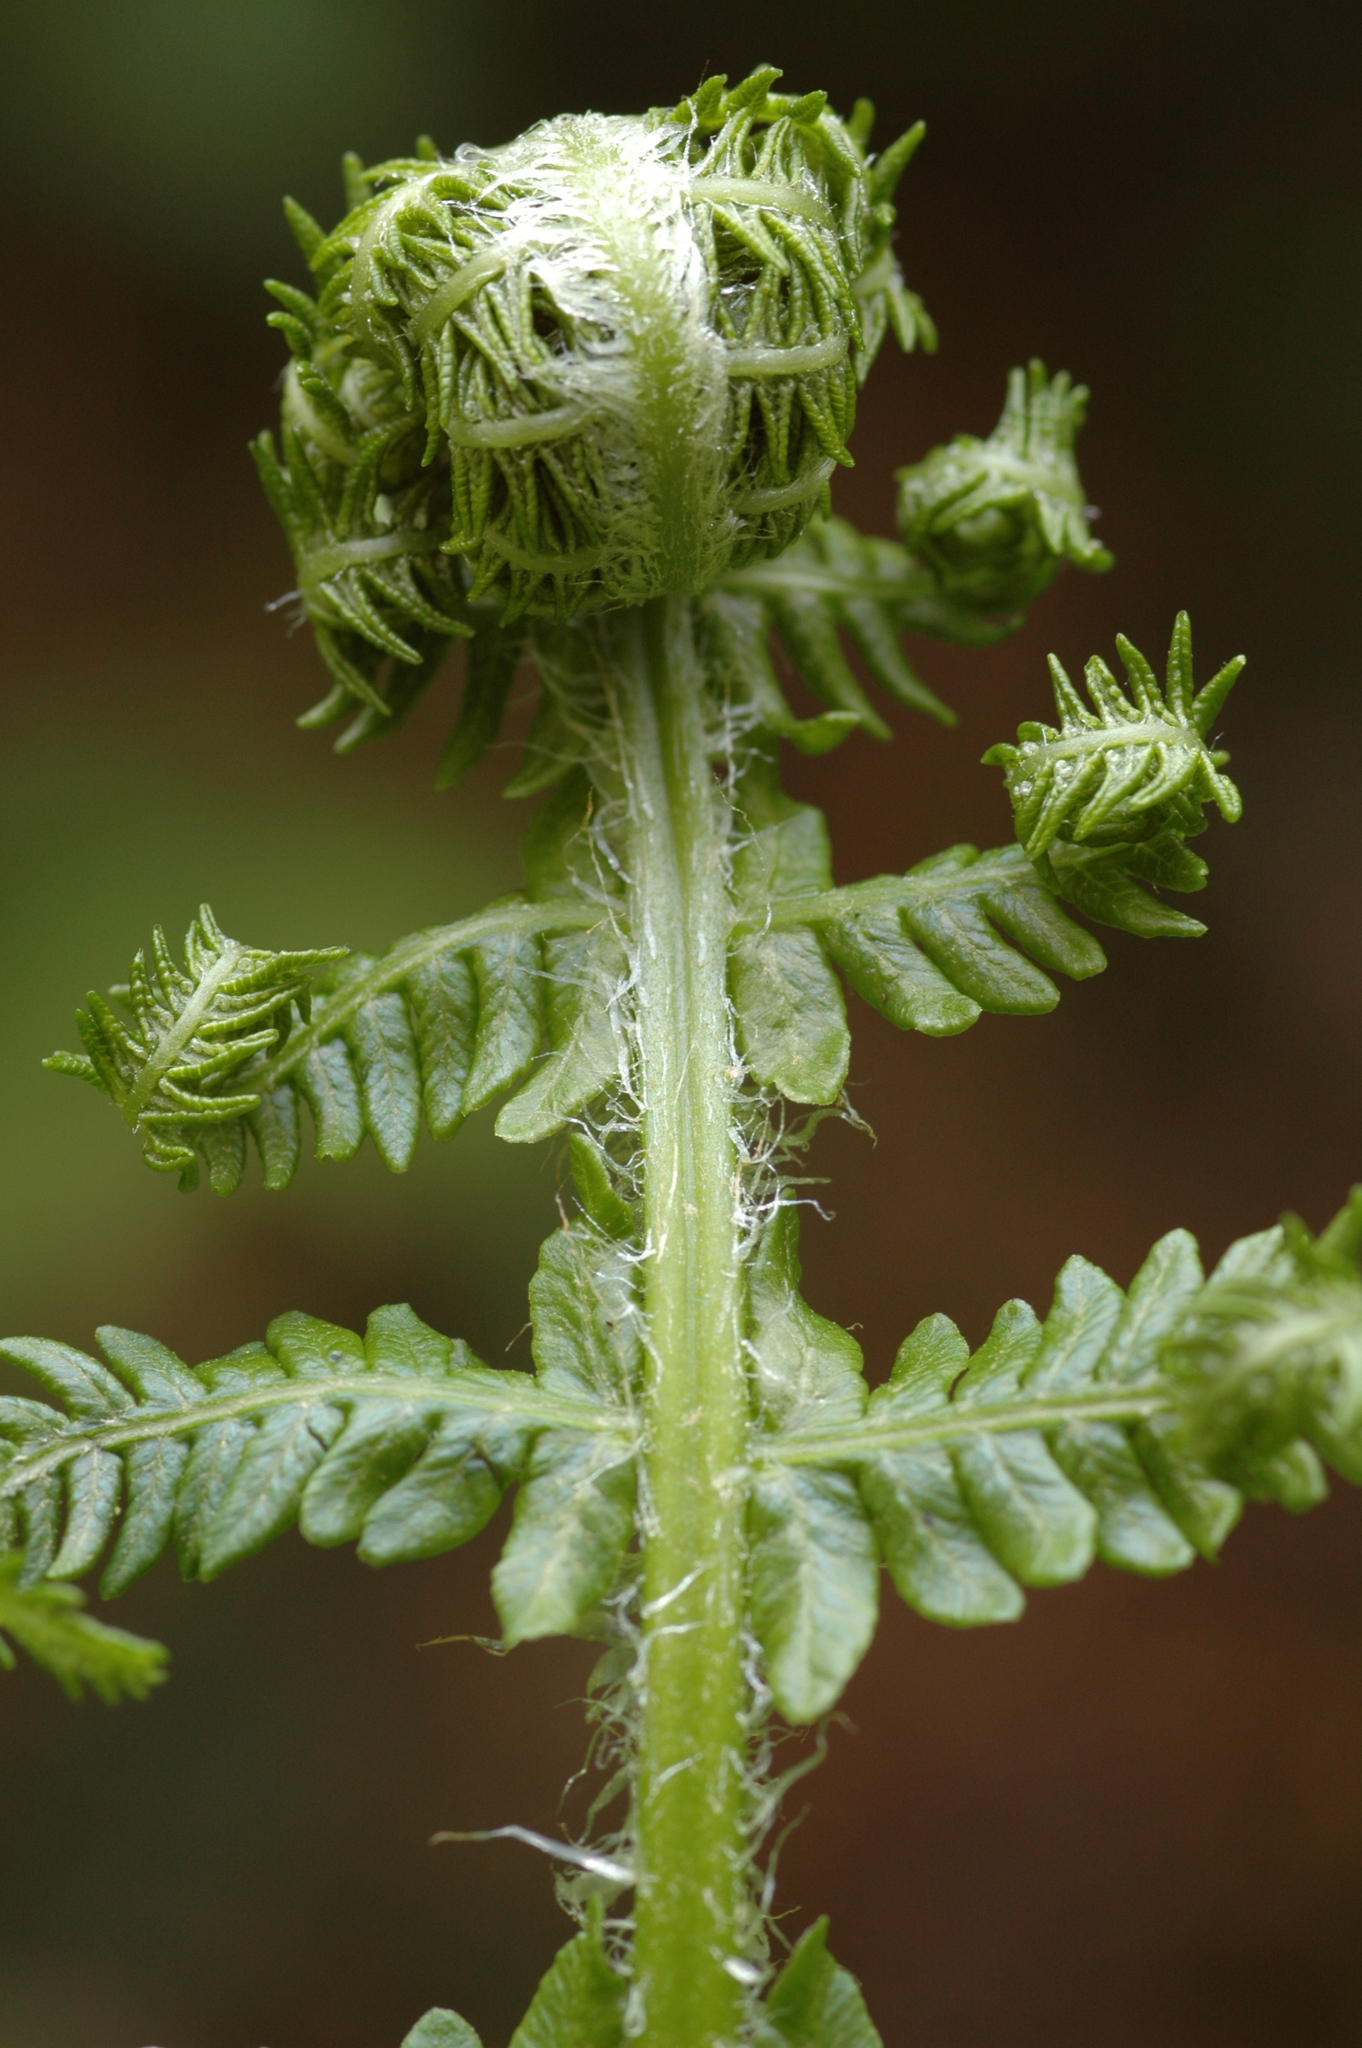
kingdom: Plantae
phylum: Tracheophyta
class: Polypodiopsida
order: Polypodiales
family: Thelypteridaceae
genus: Oreopteris
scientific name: Oreopteris quelpartensis
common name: Mountain fern
